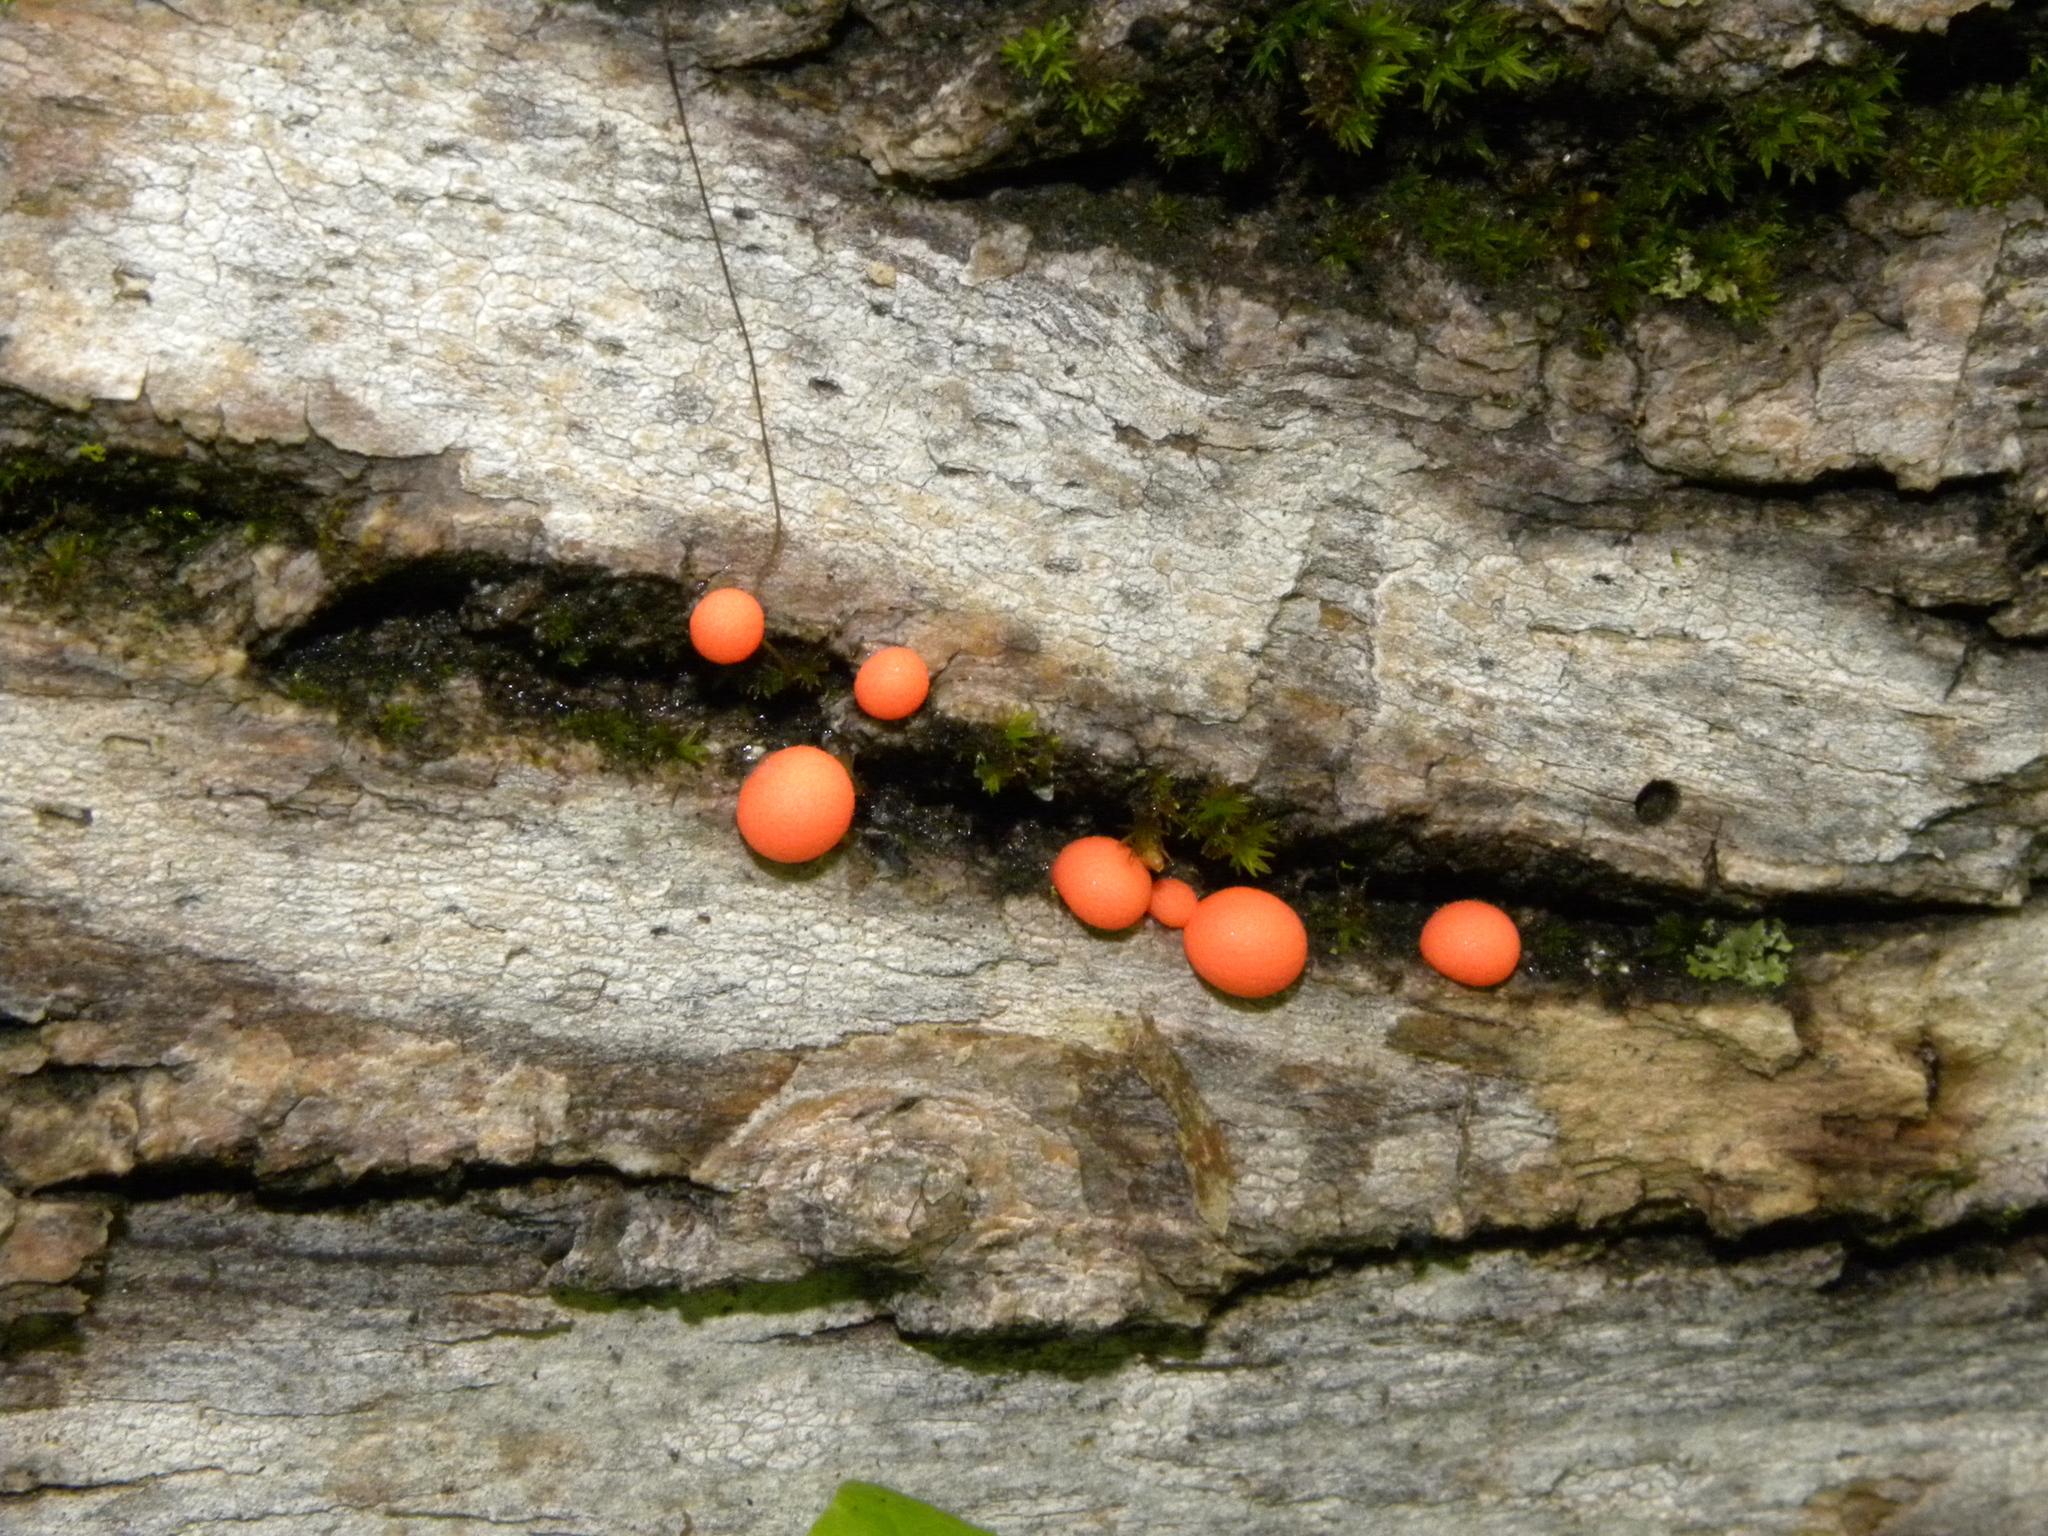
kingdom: Protozoa
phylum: Mycetozoa
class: Myxomycetes
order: Cribrariales
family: Tubiferaceae
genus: Lycogala
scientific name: Lycogala epidendrum
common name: Wolf's milk
